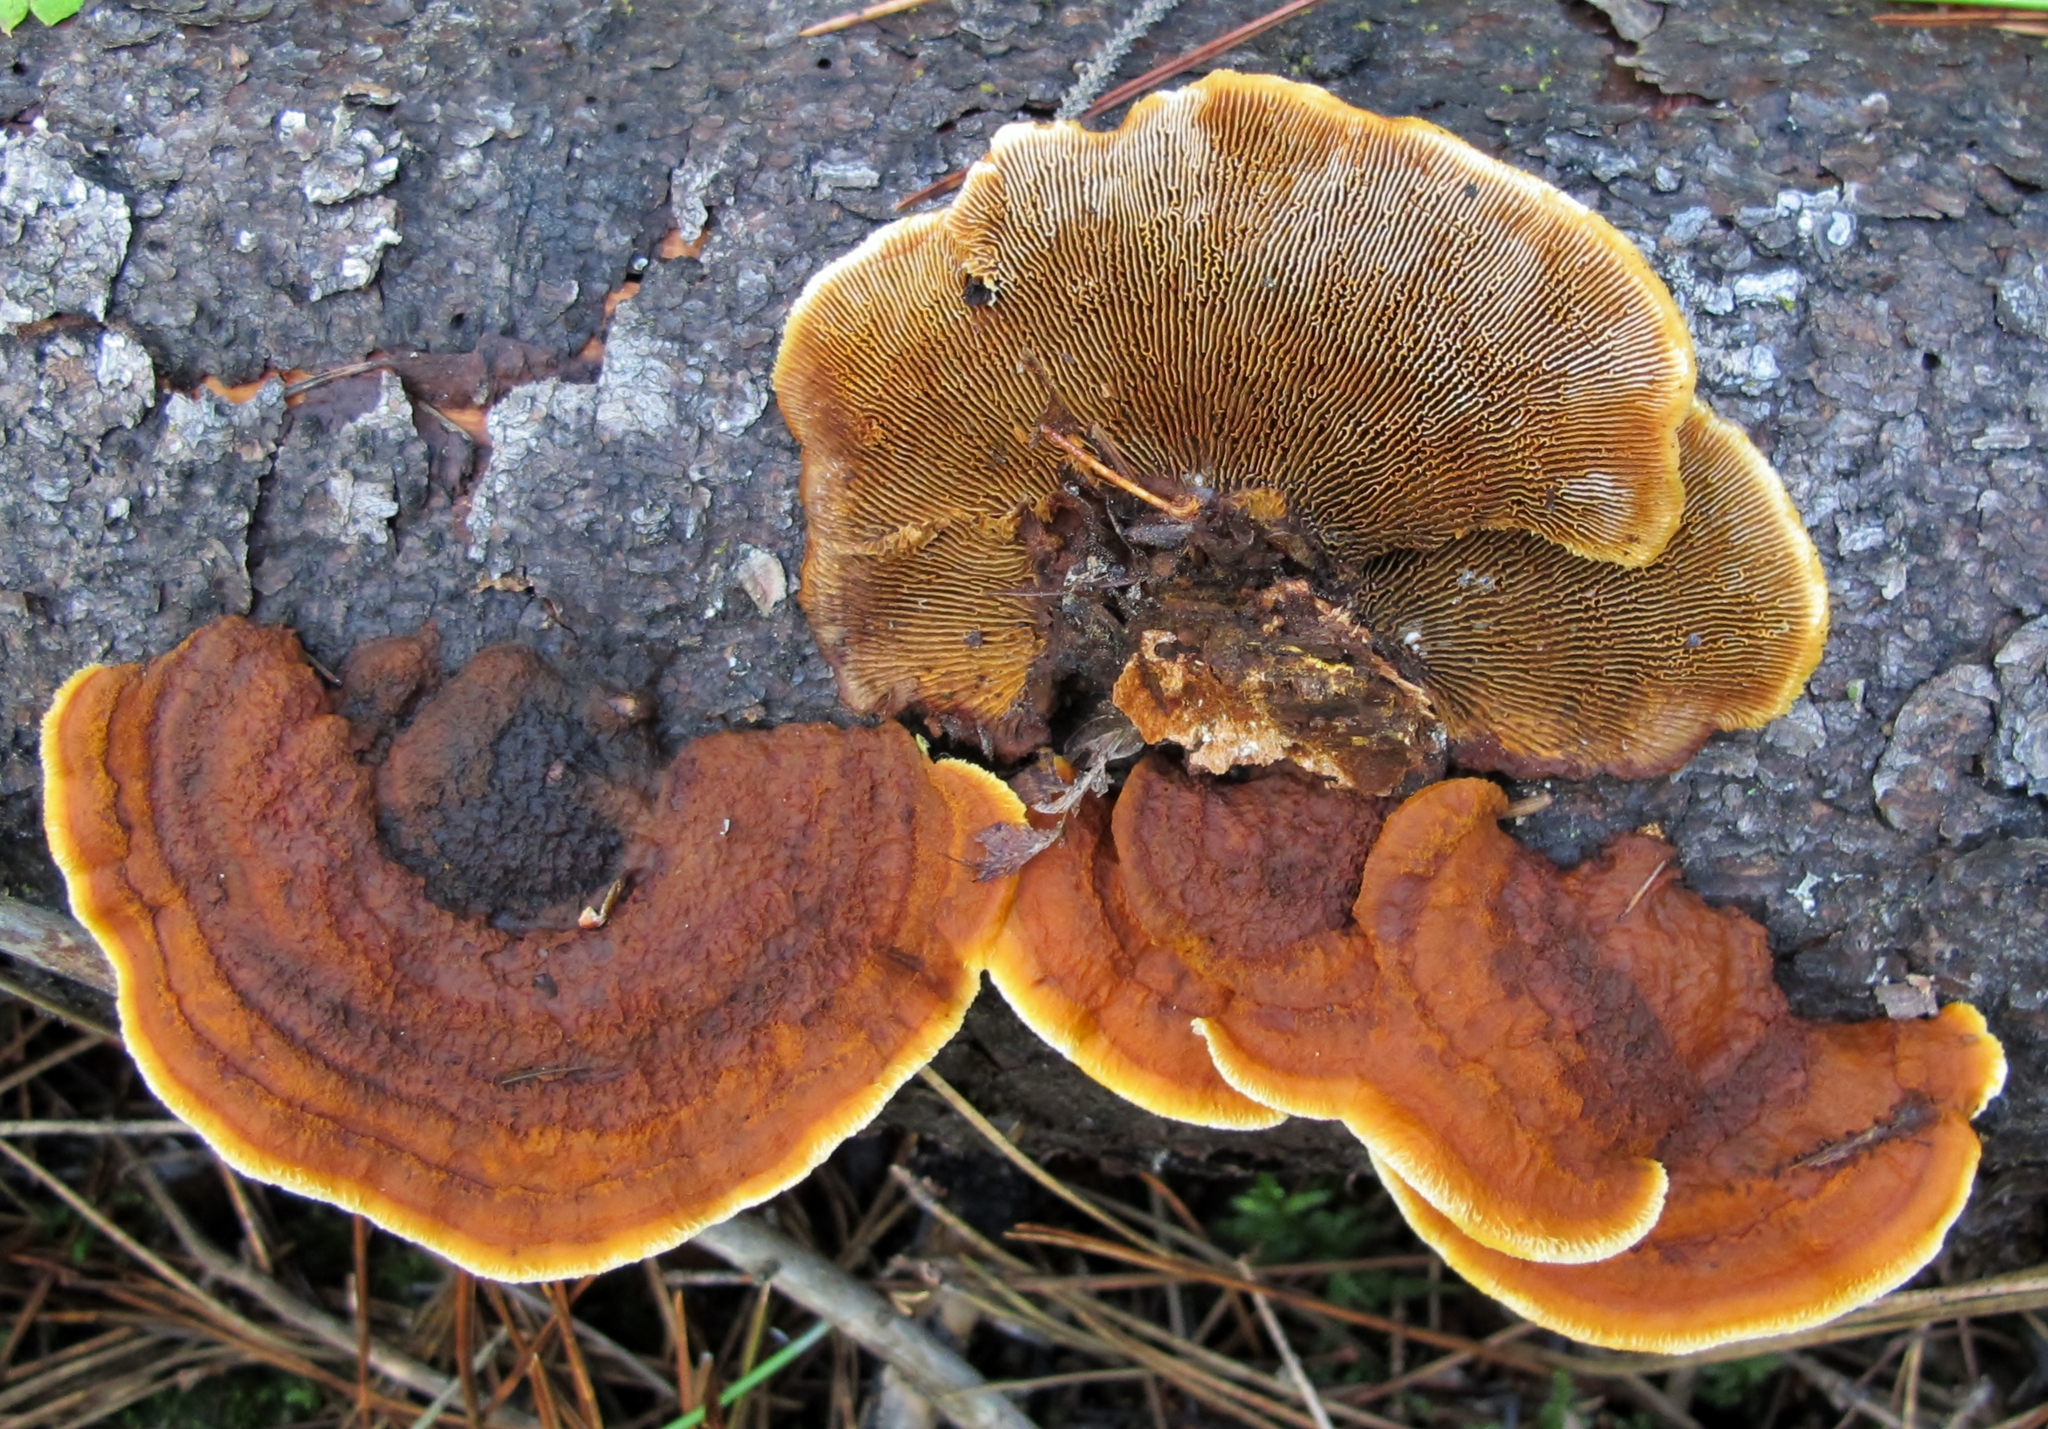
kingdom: Fungi
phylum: Basidiomycota
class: Agaricomycetes
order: Gloeophyllales
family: Gloeophyllaceae
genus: Gloeophyllum
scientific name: Gloeophyllum sepiarium
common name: Conifer mazegill
